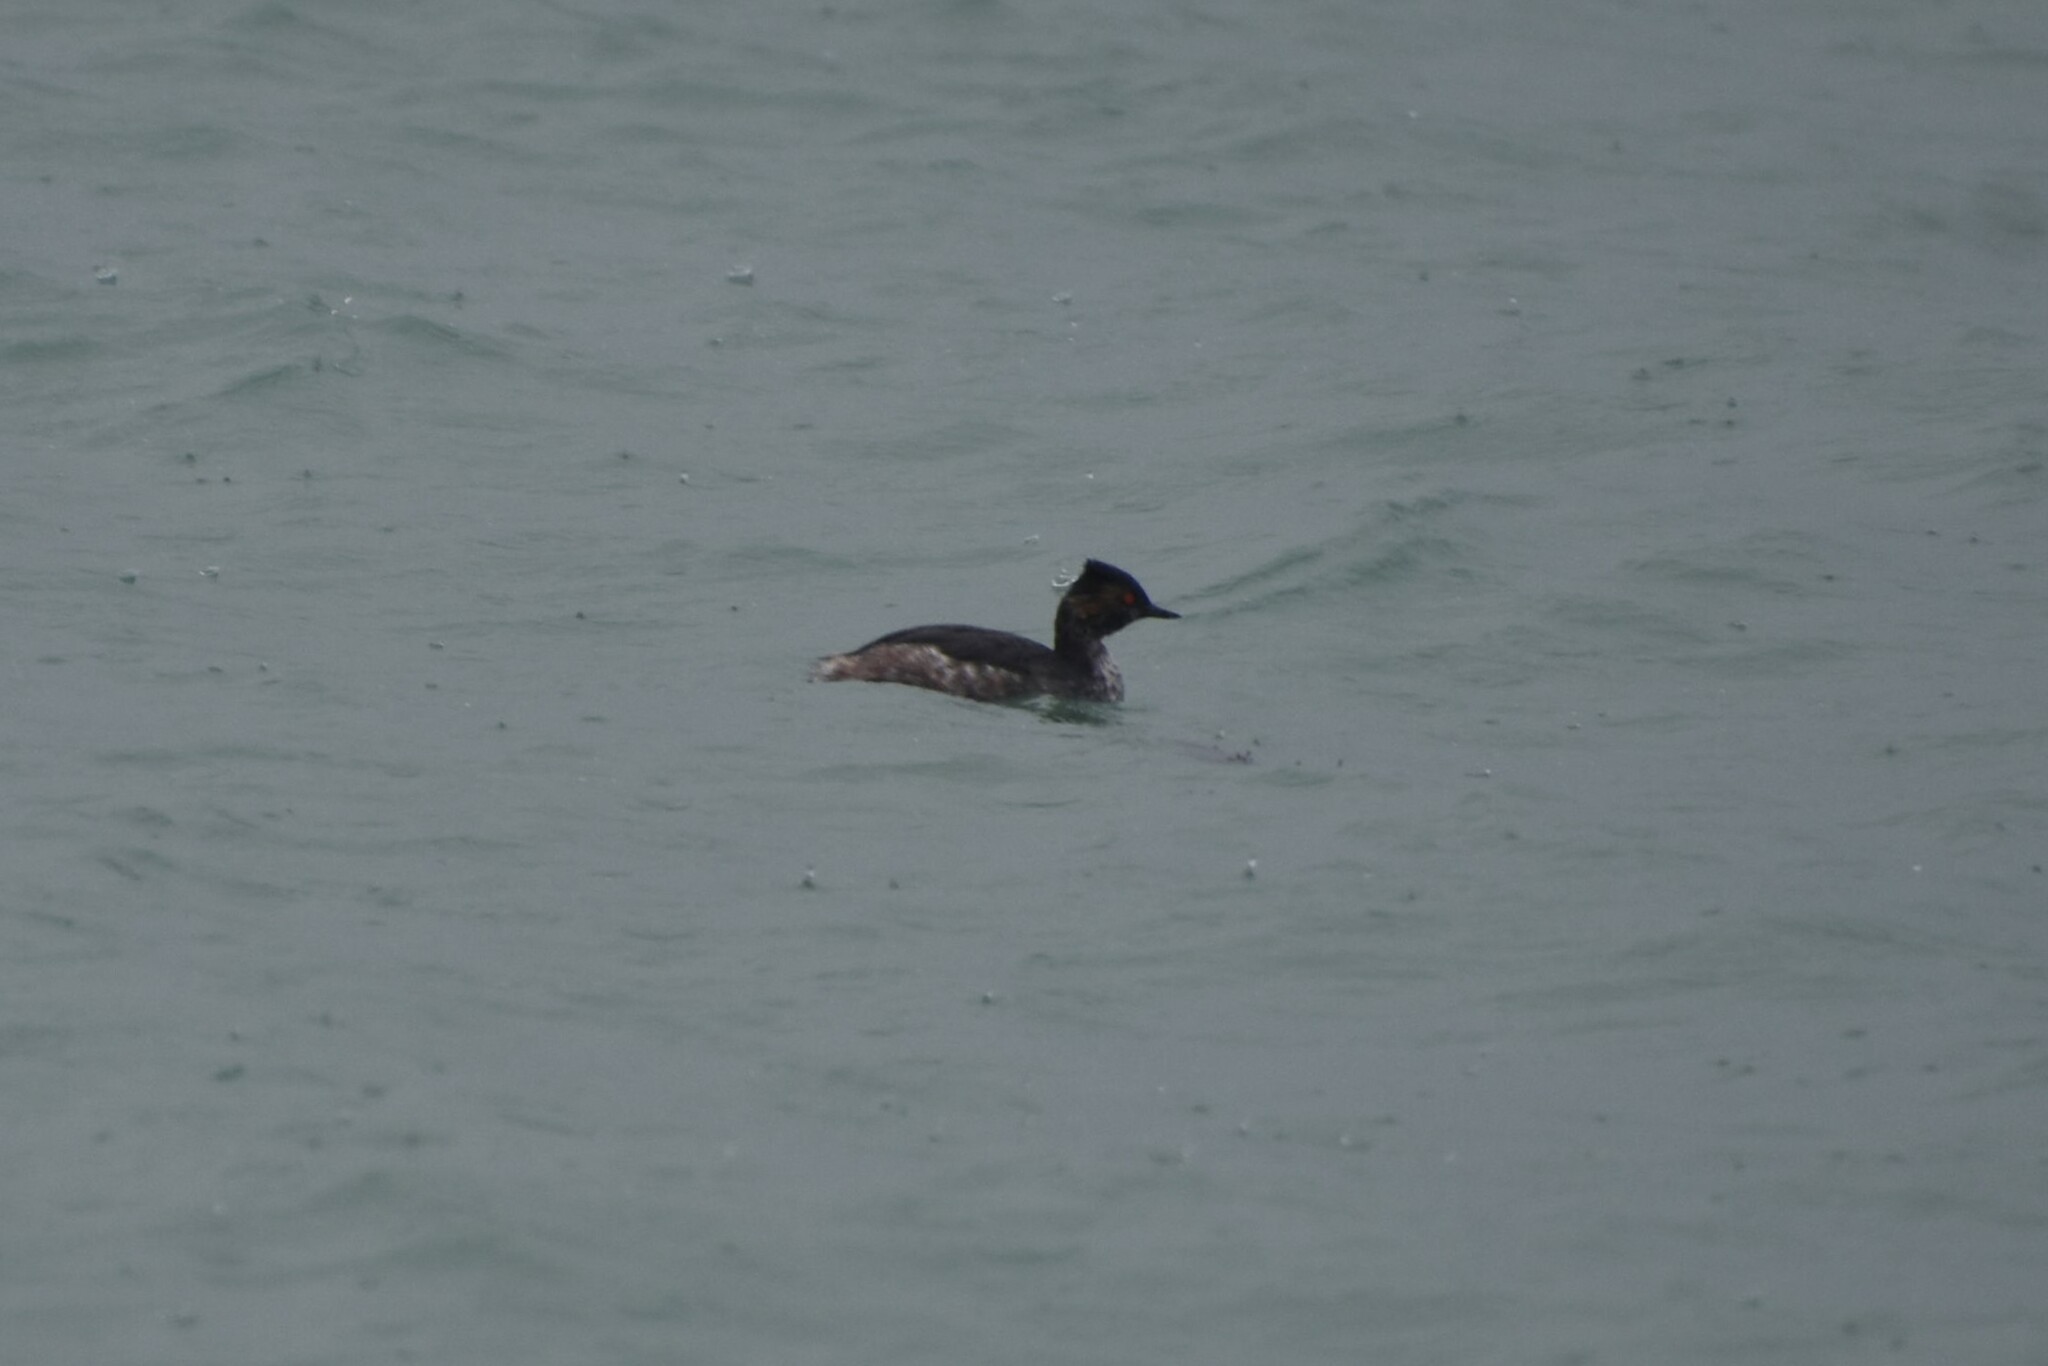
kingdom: Animalia
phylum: Chordata
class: Aves
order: Podicipediformes
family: Podicipedidae
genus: Podiceps
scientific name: Podiceps nigricollis
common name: Black-necked grebe
